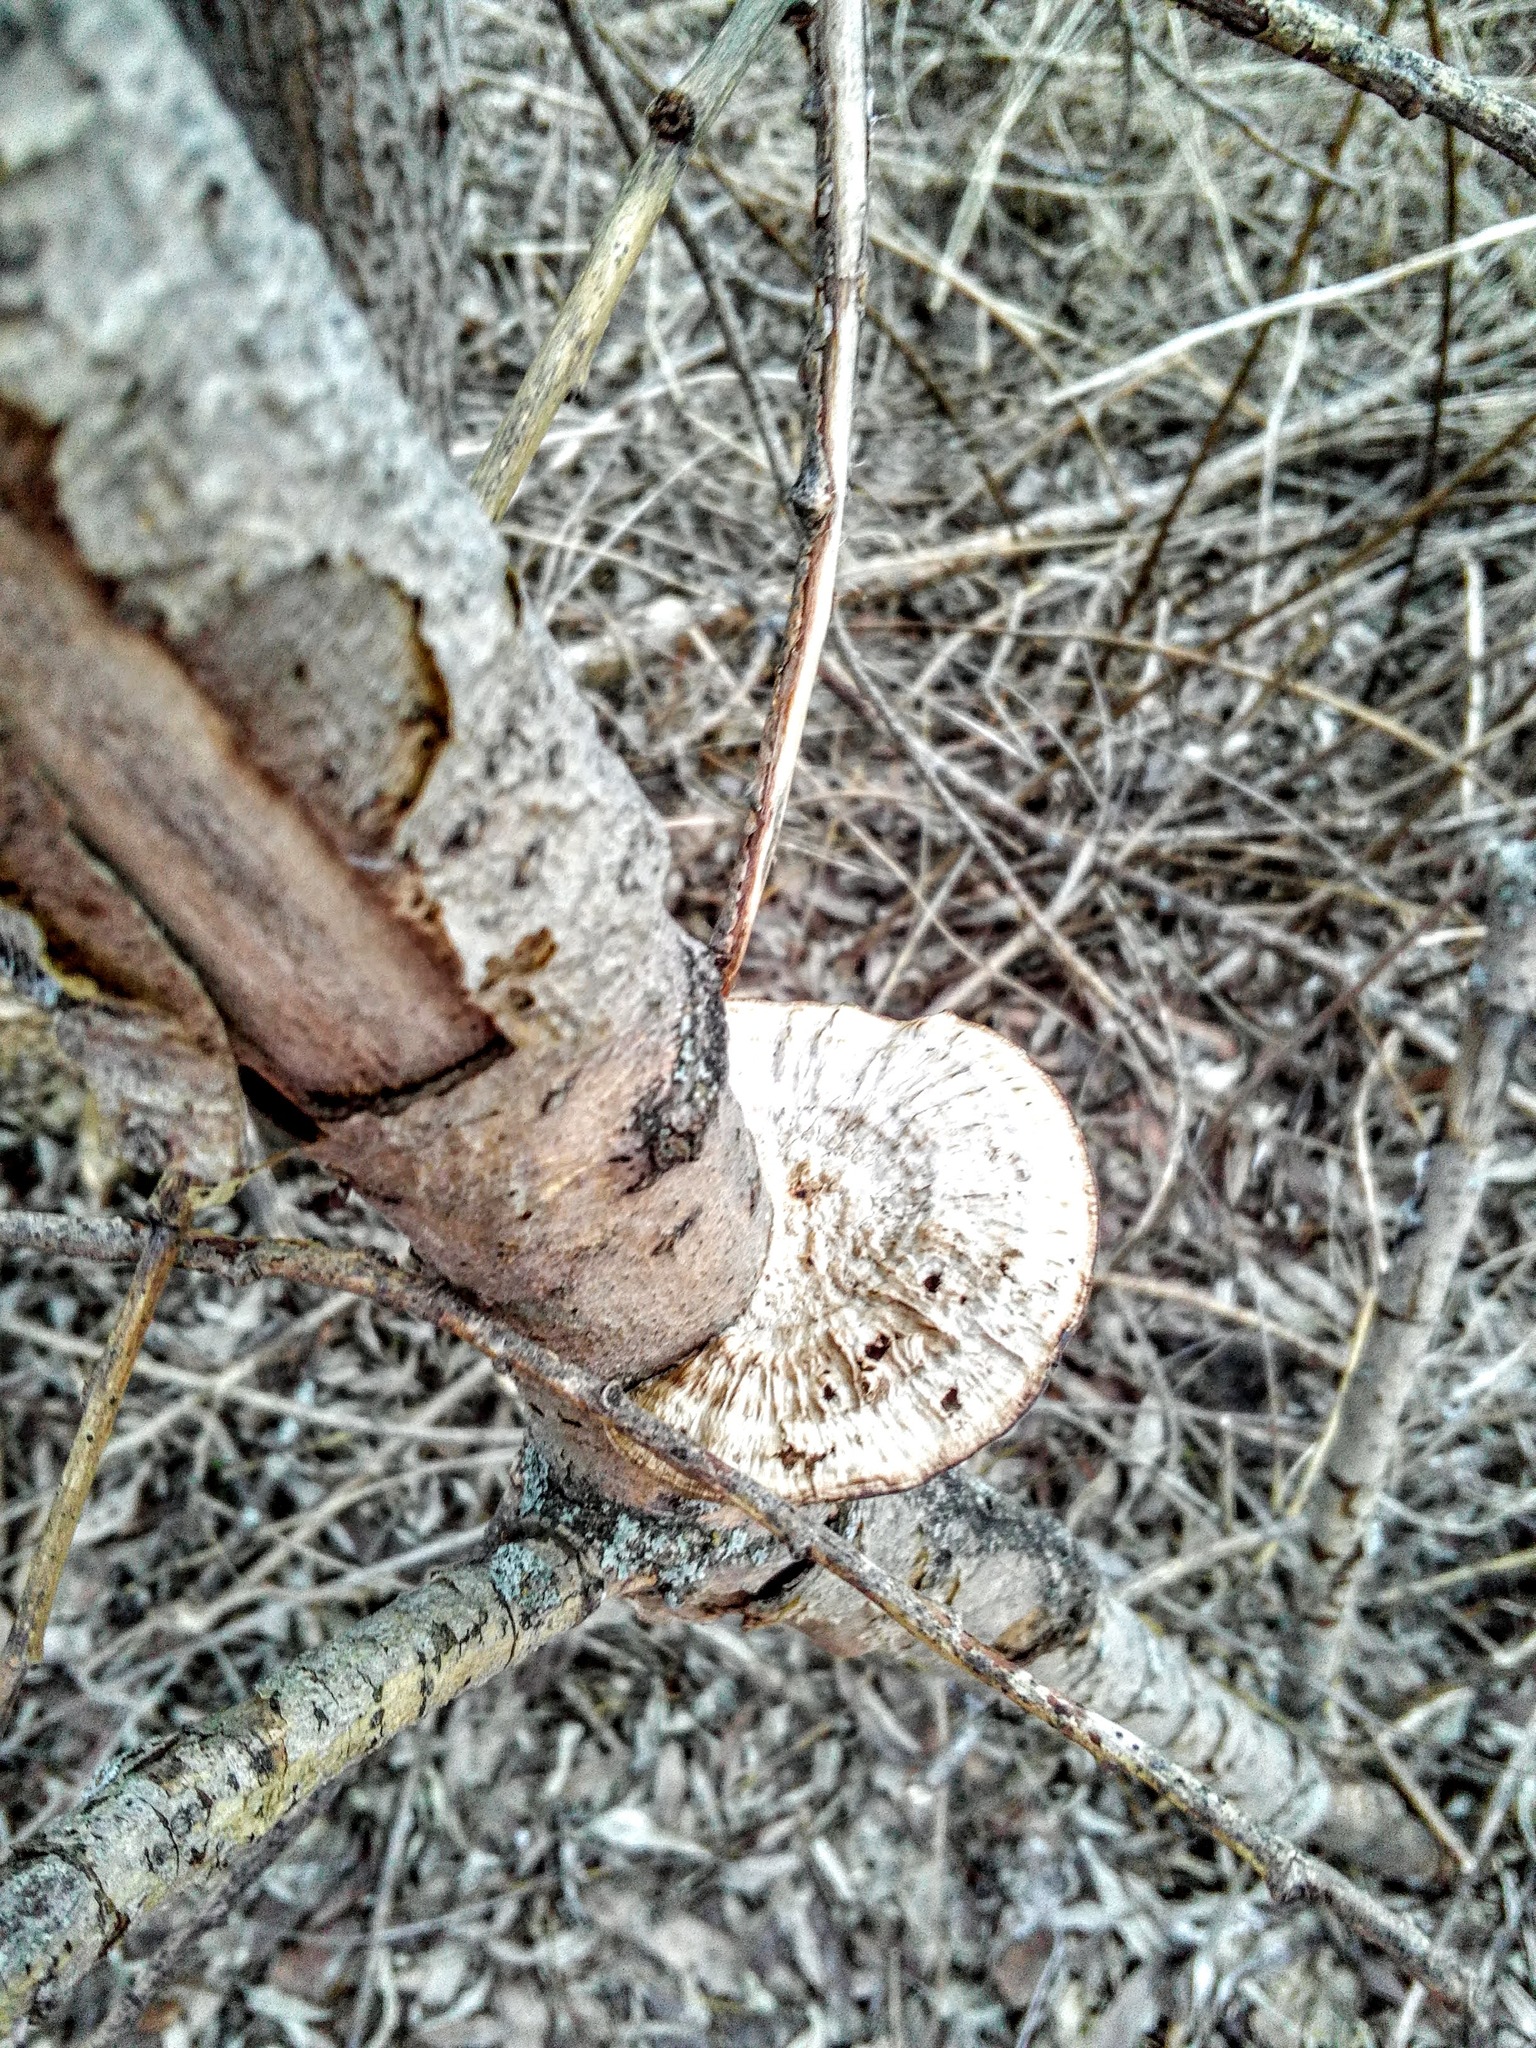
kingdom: Fungi
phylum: Basidiomycota
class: Agaricomycetes
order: Polyporales
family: Polyporaceae
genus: Daedaleopsis
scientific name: Daedaleopsis confragosa
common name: Blushing bracket
